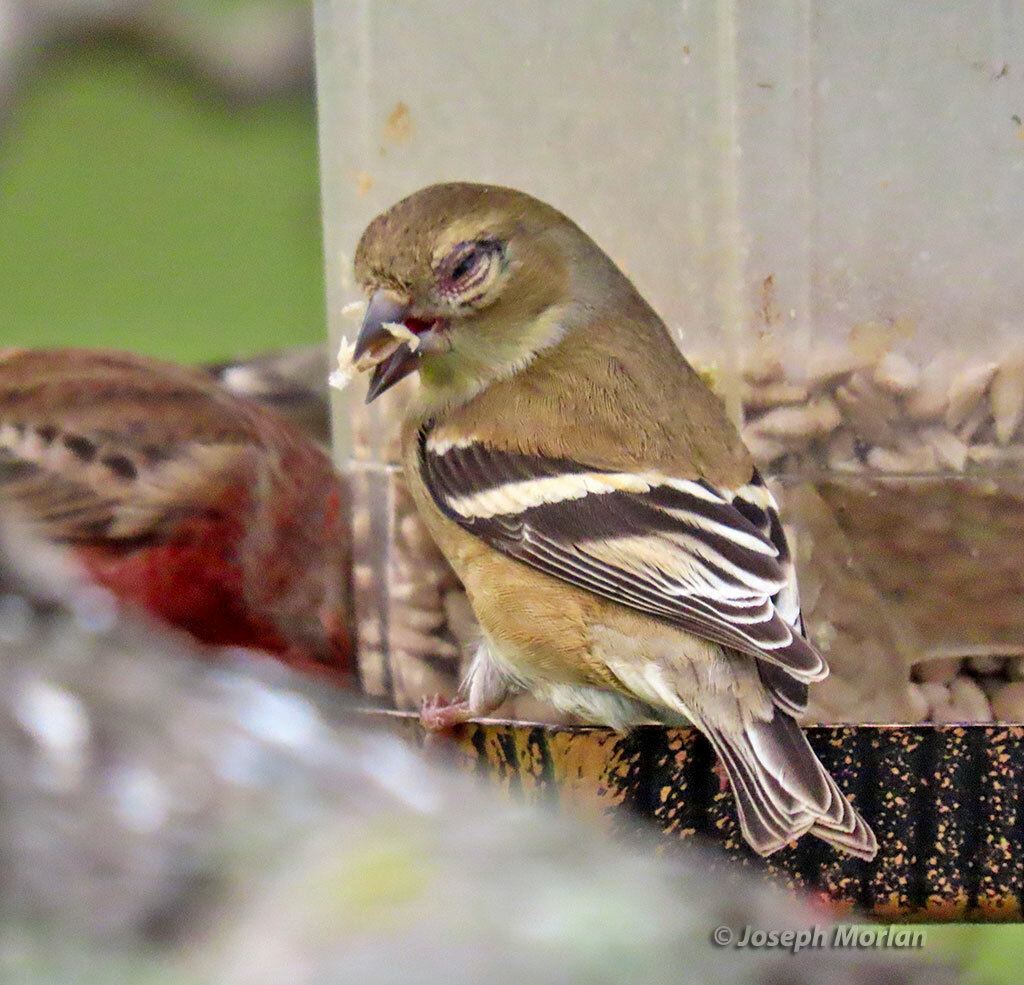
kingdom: Animalia
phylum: Chordata
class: Aves
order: Passeriformes
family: Fringillidae
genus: Spinus
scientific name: Spinus tristis
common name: American goldfinch
